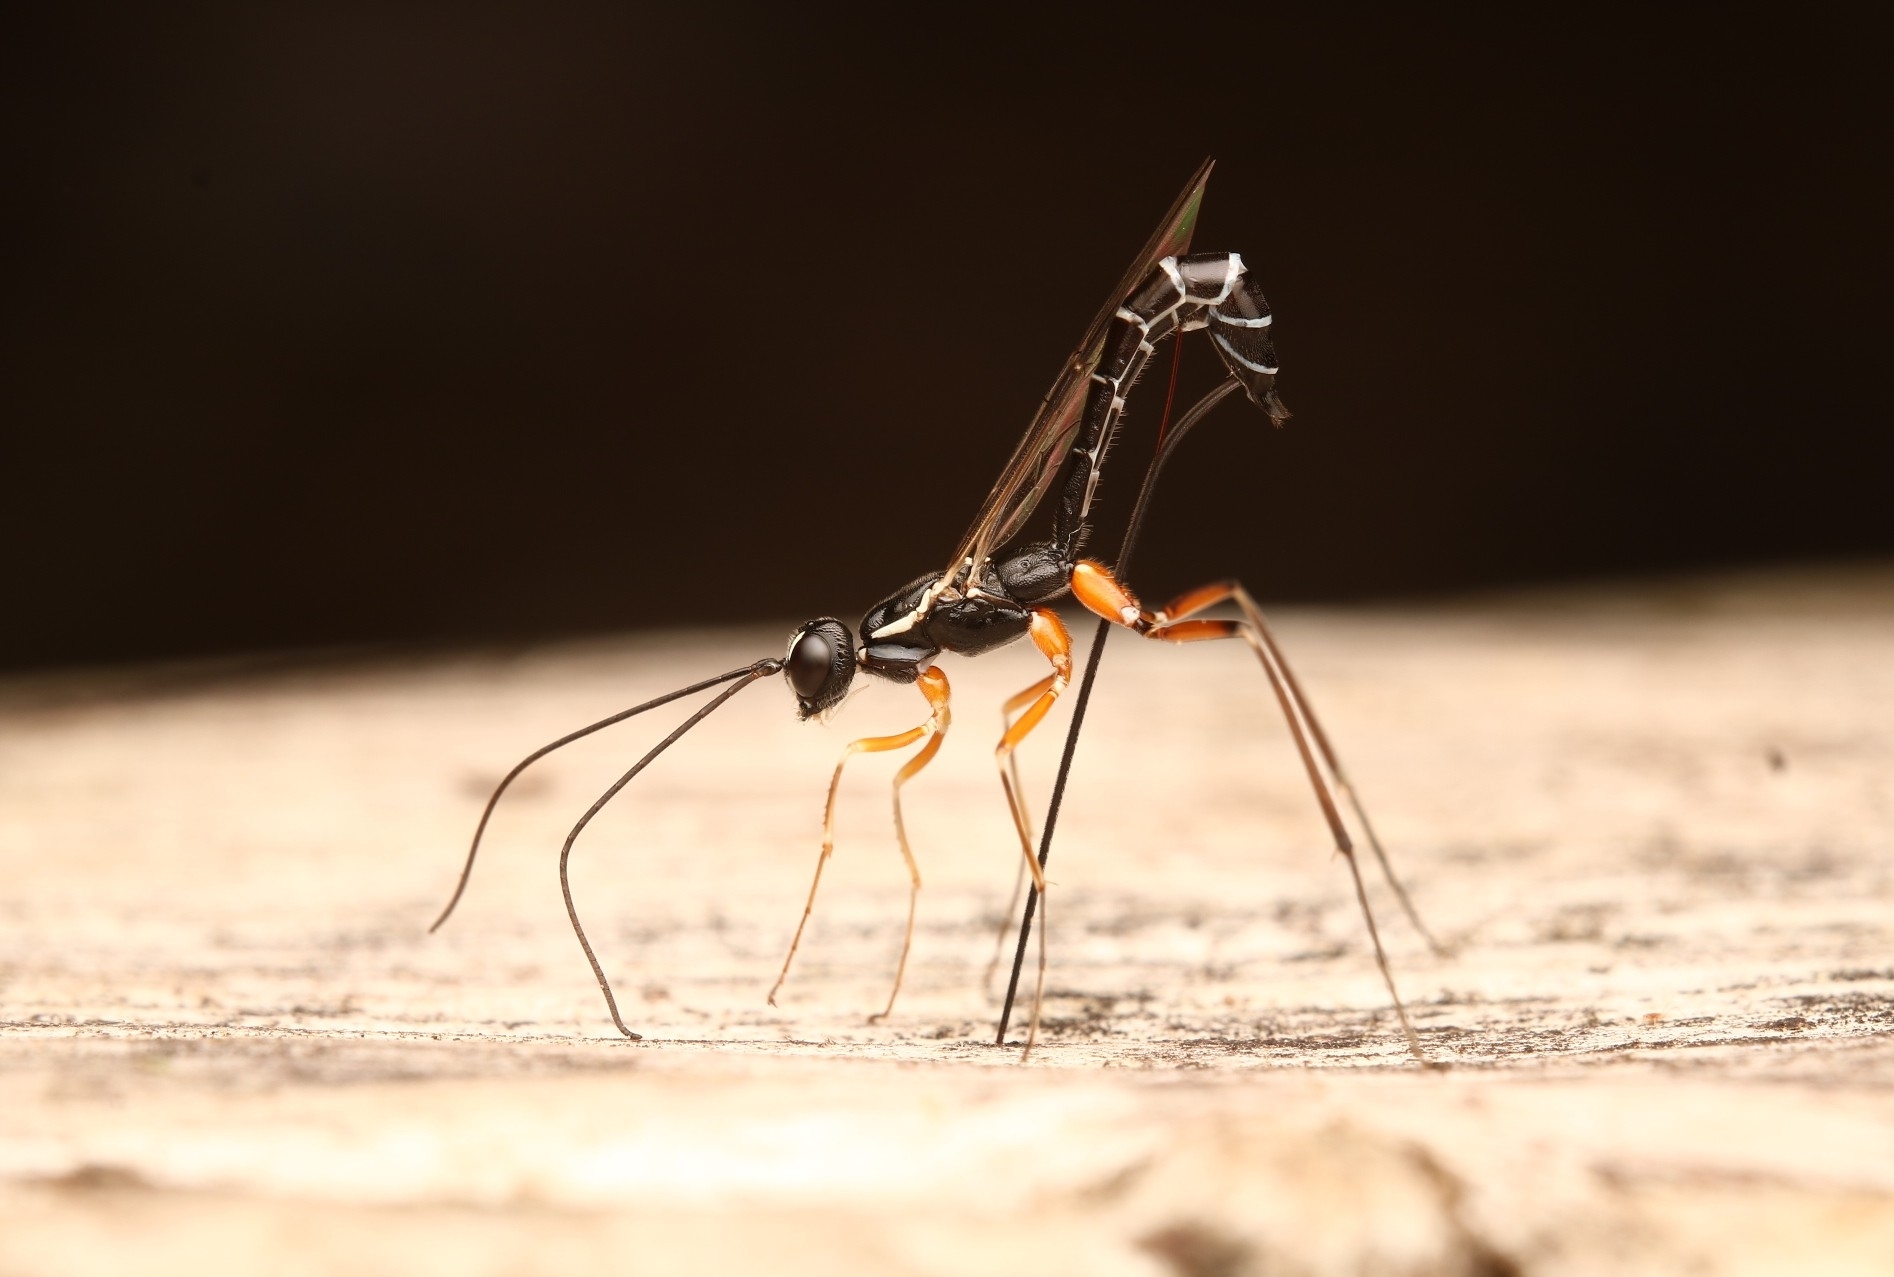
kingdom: Animalia
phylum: Arthropoda
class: Insecta
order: Hymenoptera
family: Ichneumonidae
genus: Podoschistus
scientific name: Podoschistus vittifrons
